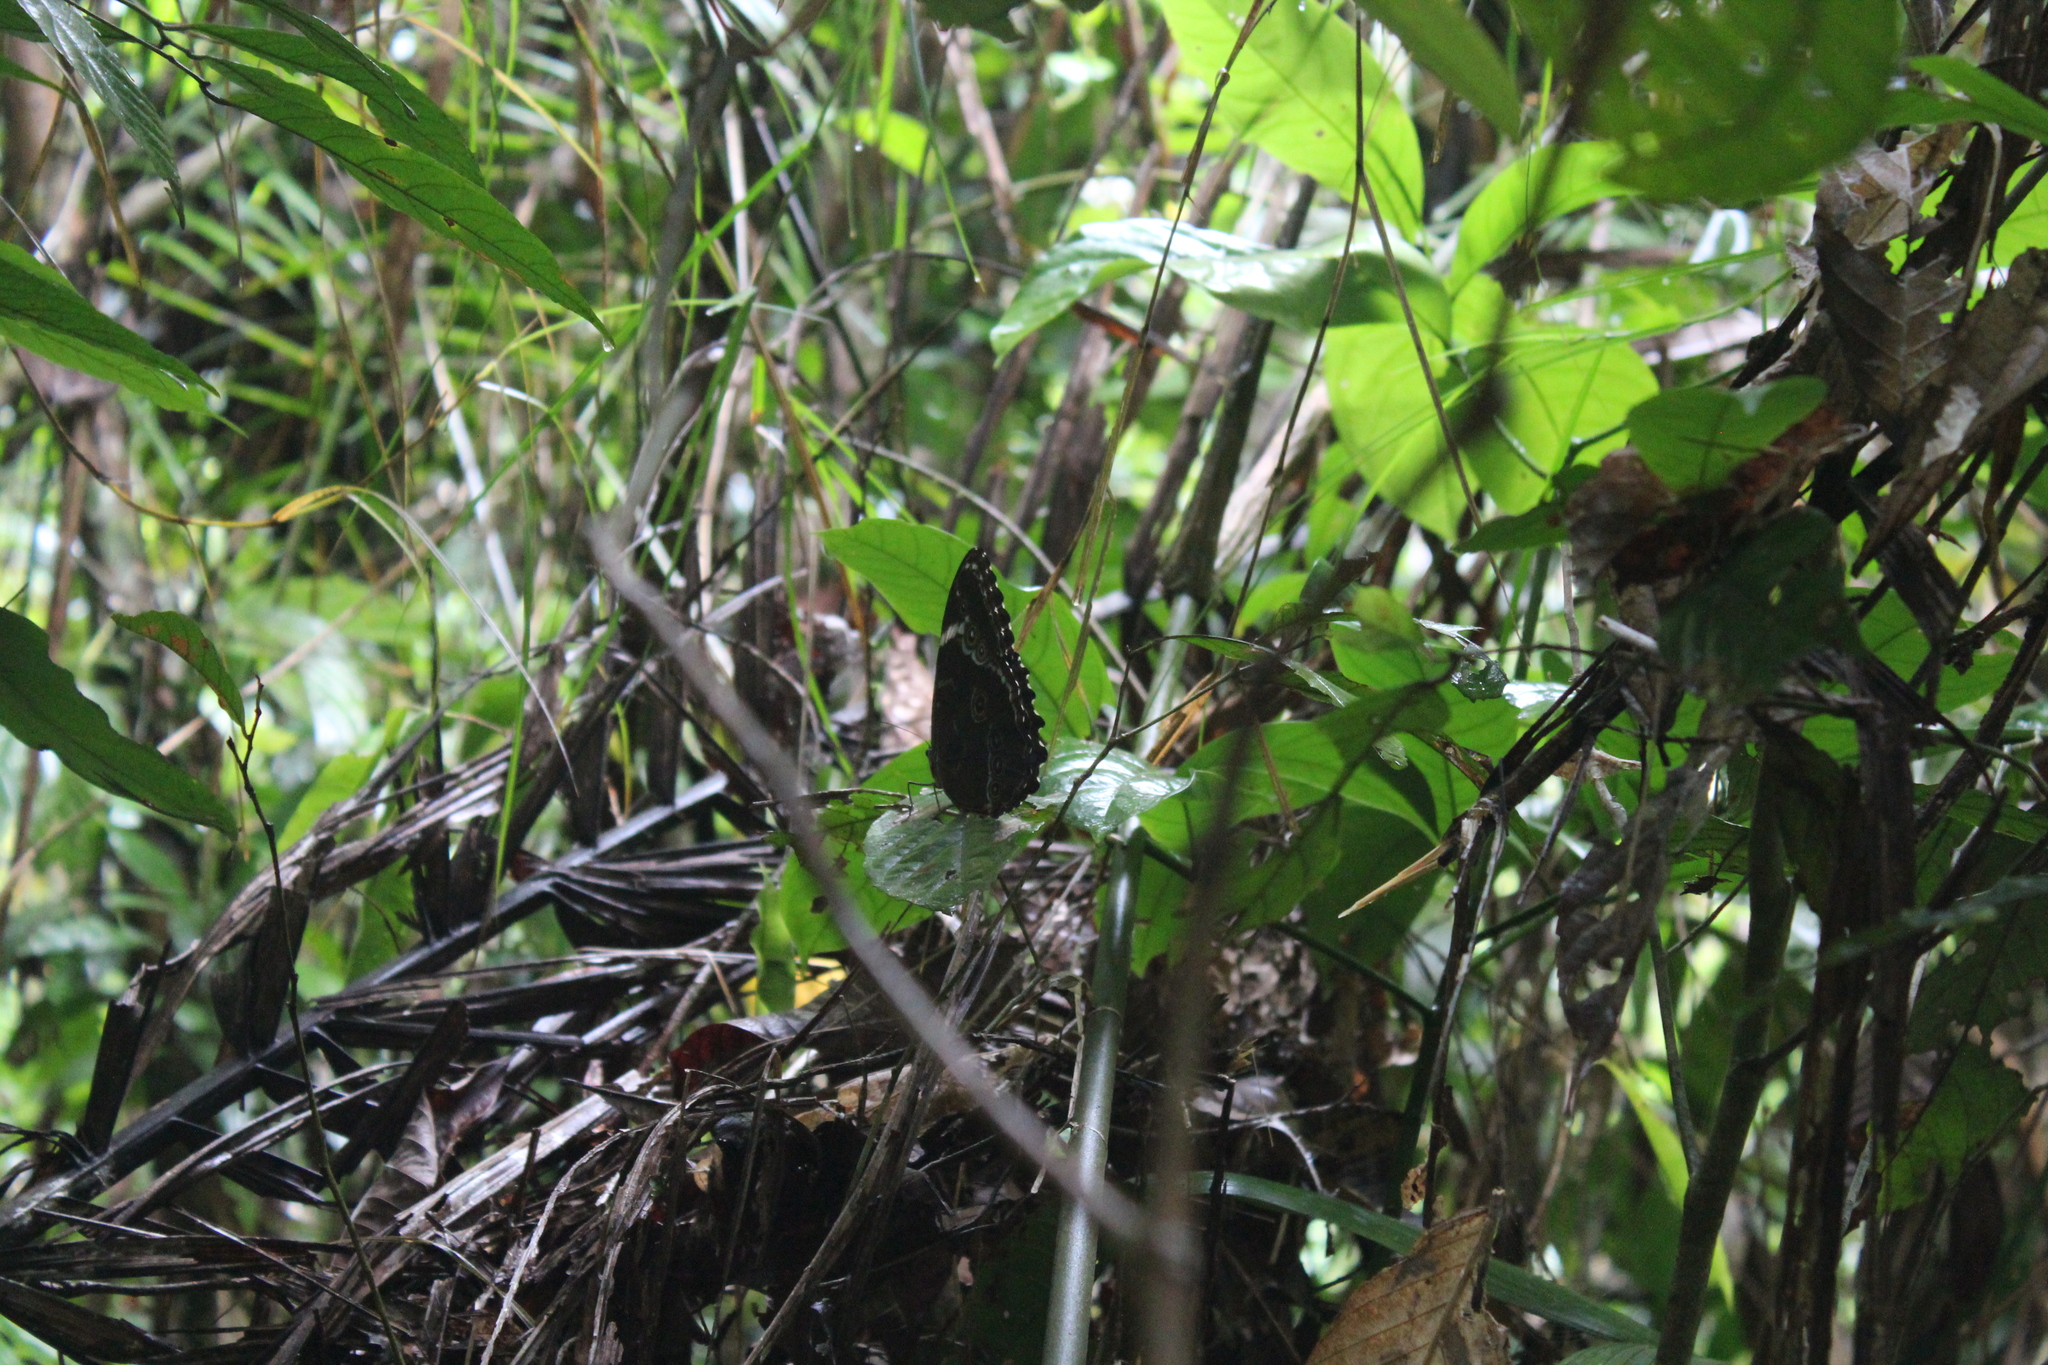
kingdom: Animalia
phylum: Arthropoda
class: Insecta
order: Lepidoptera
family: Nymphalidae
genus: Morpho
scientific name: Morpho helenor
